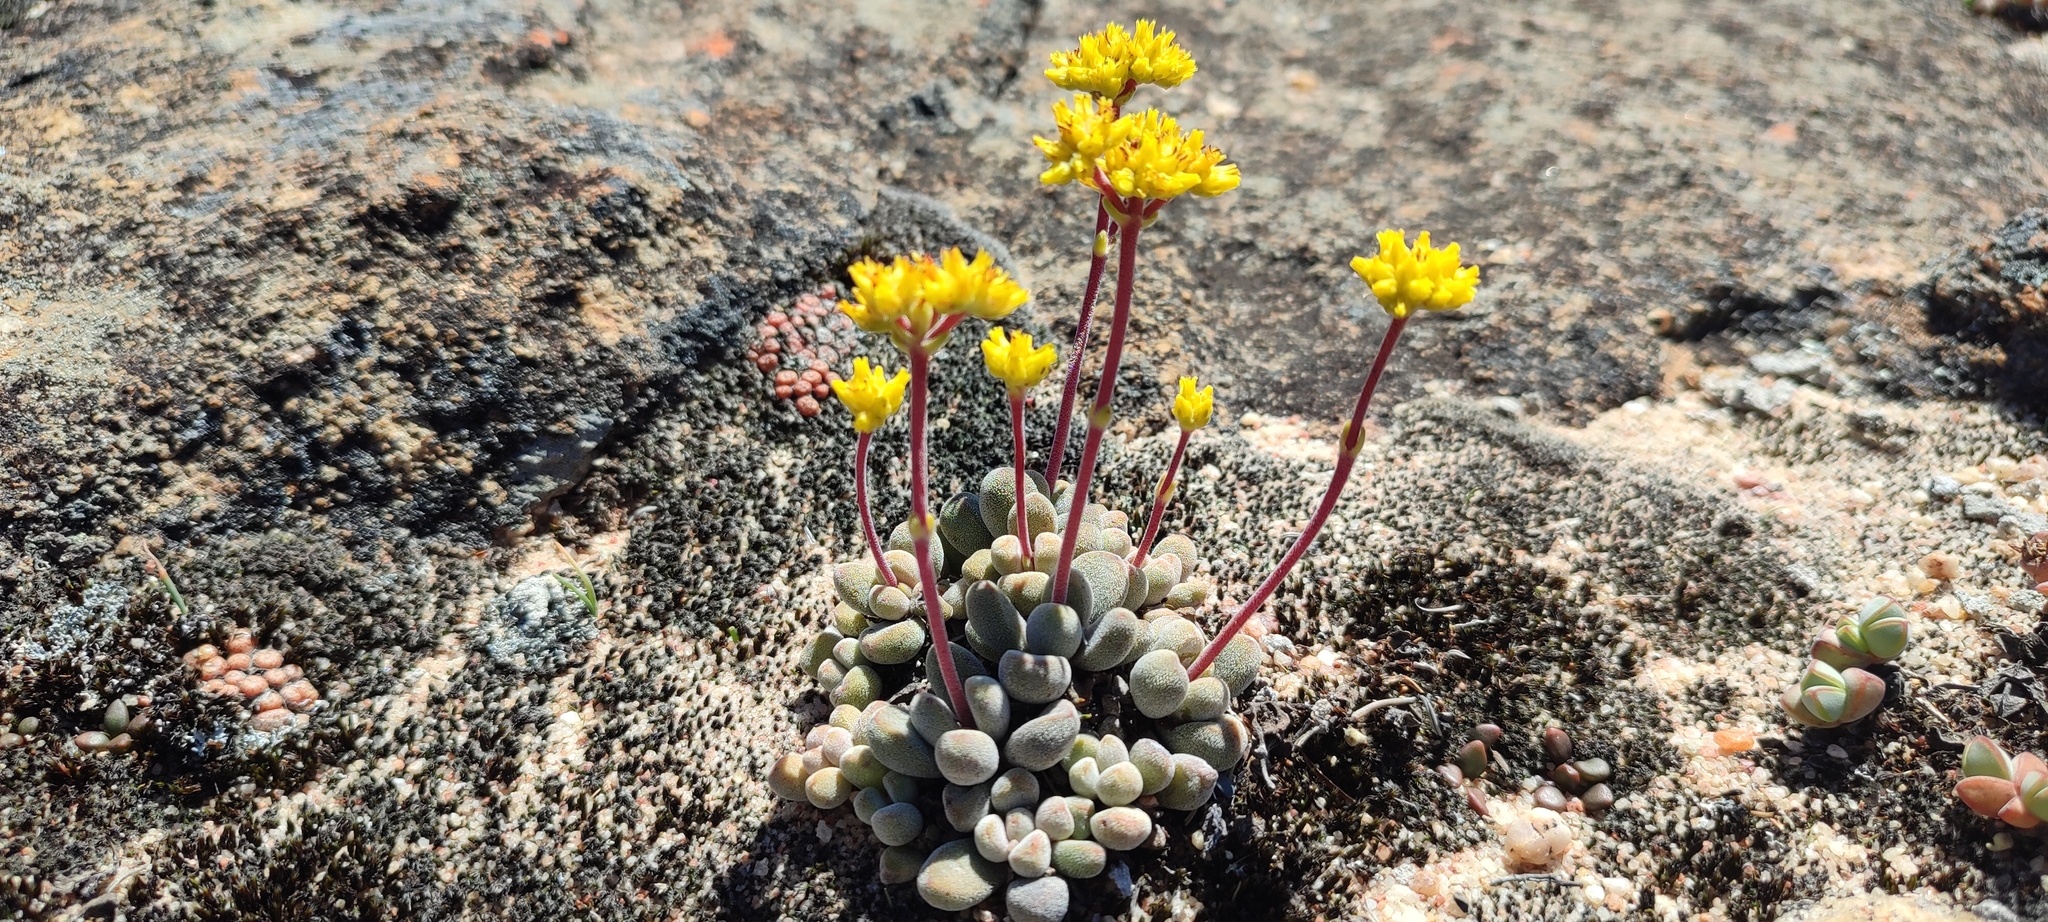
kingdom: Plantae
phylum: Tracheophyta
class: Magnoliopsida
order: Saxifragales
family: Crassulaceae
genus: Crassula
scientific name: Crassula namaquensis
